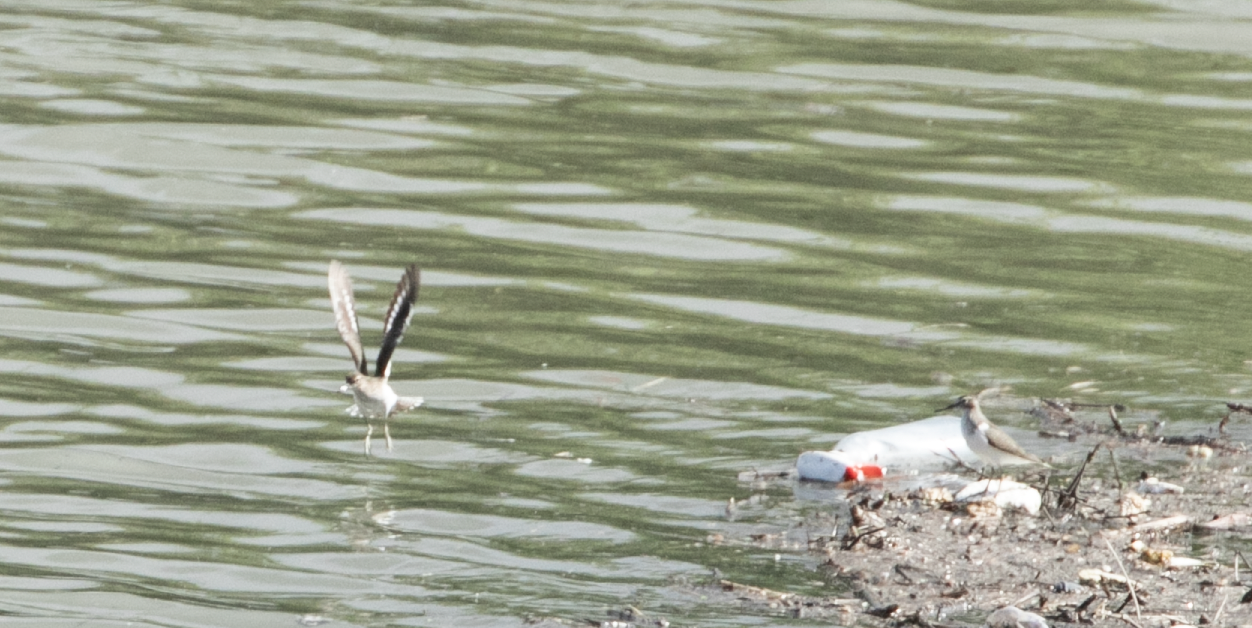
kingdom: Animalia
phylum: Chordata
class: Aves
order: Charadriiformes
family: Scolopacidae
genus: Actitis
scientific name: Actitis hypoleucos
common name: Common sandpiper
